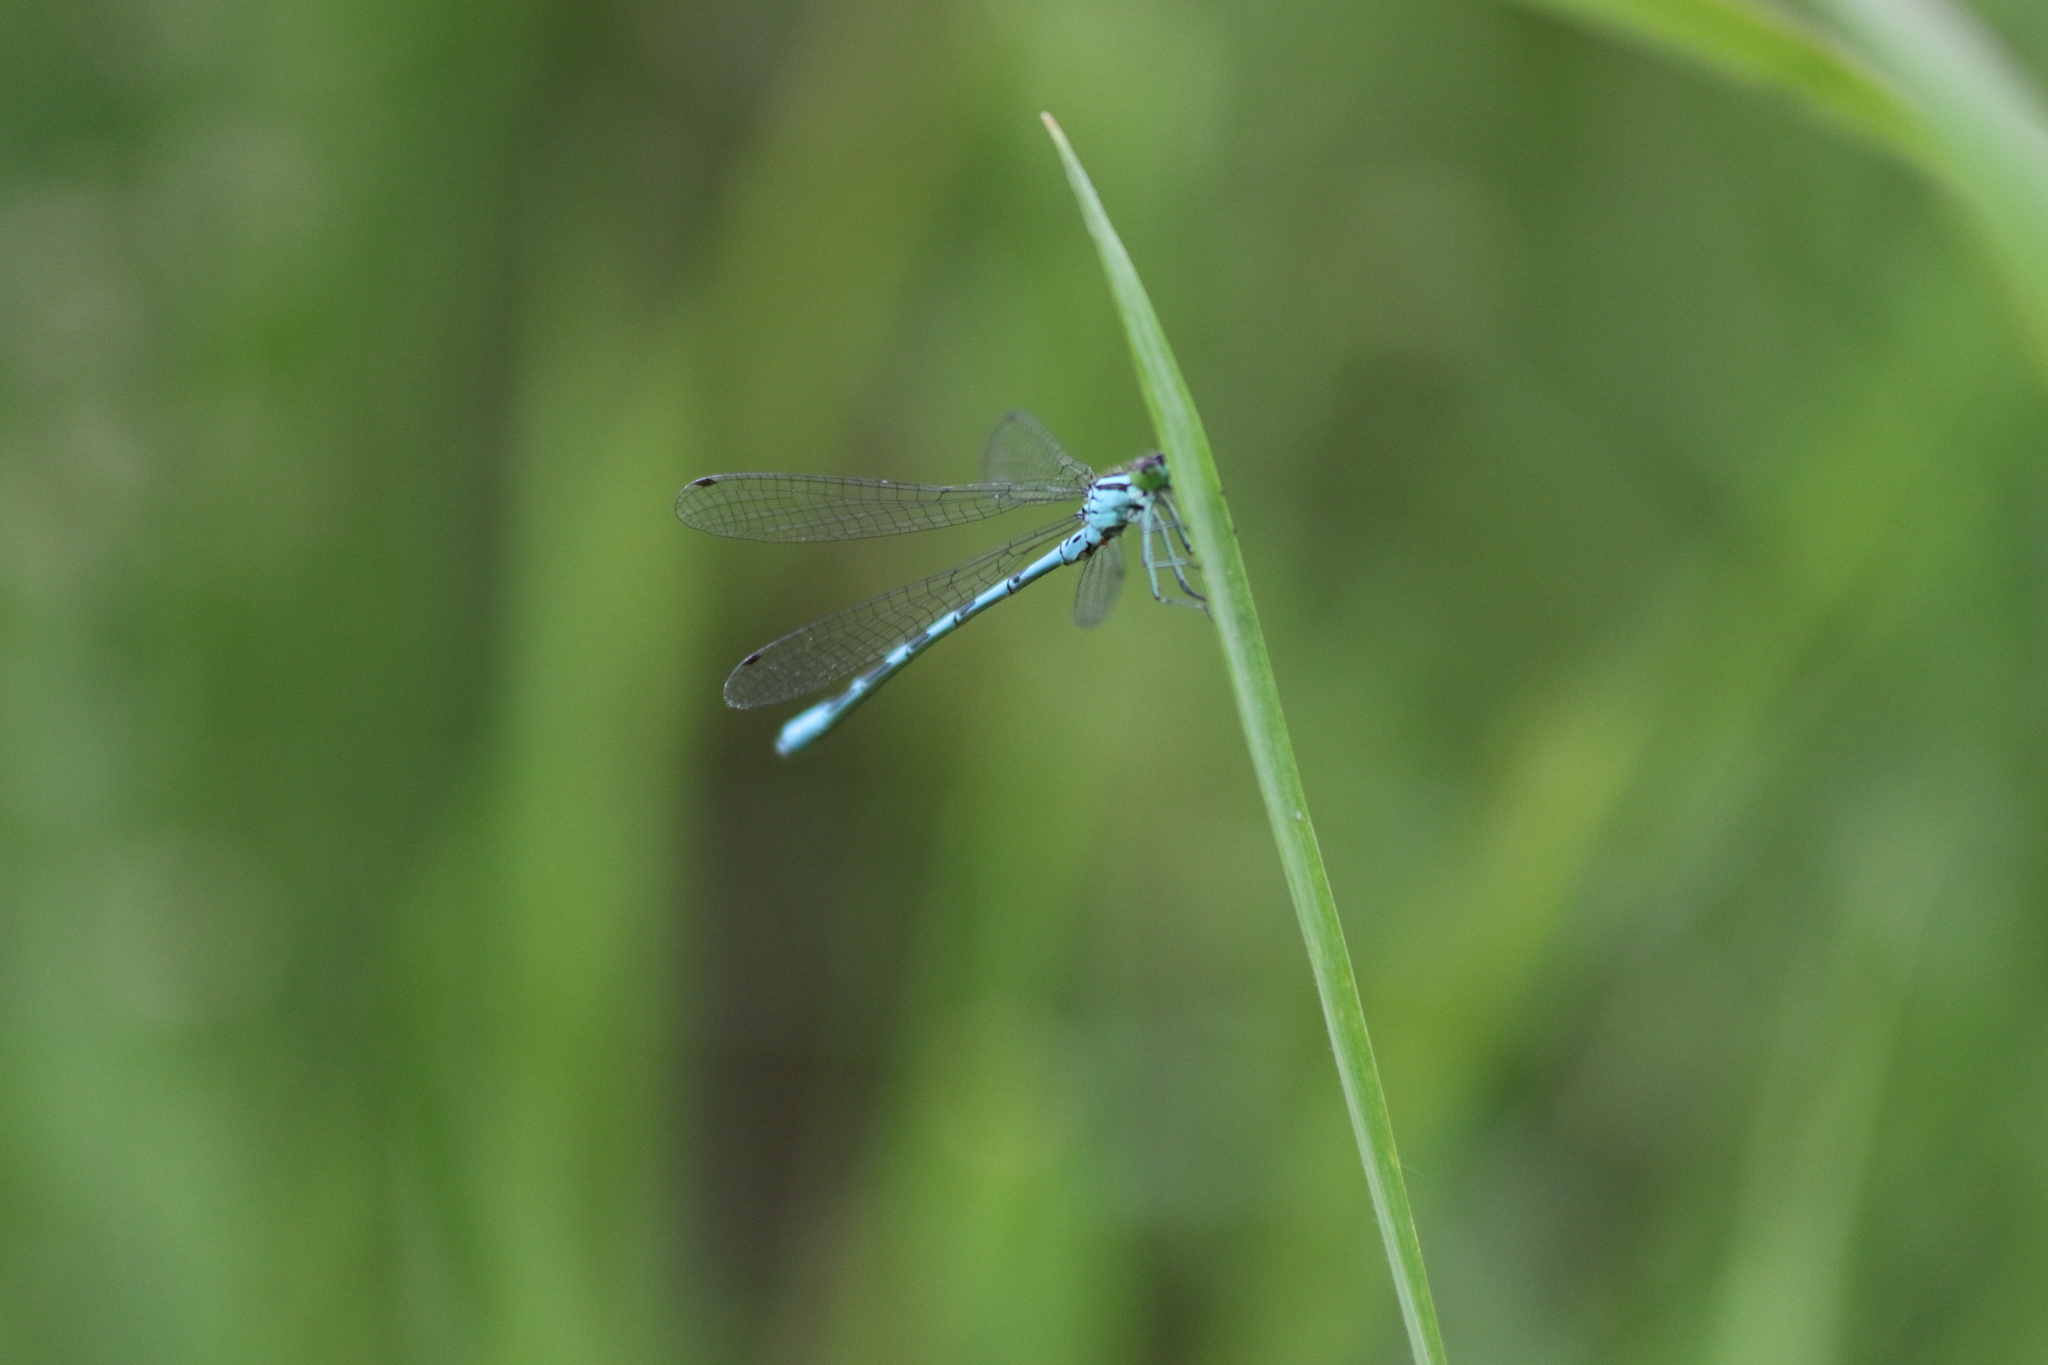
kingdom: Animalia
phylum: Arthropoda
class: Insecta
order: Odonata
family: Coenagrionidae
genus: Coenagrion
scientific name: Coenagrion hastulatum
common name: Spearhead bluet
